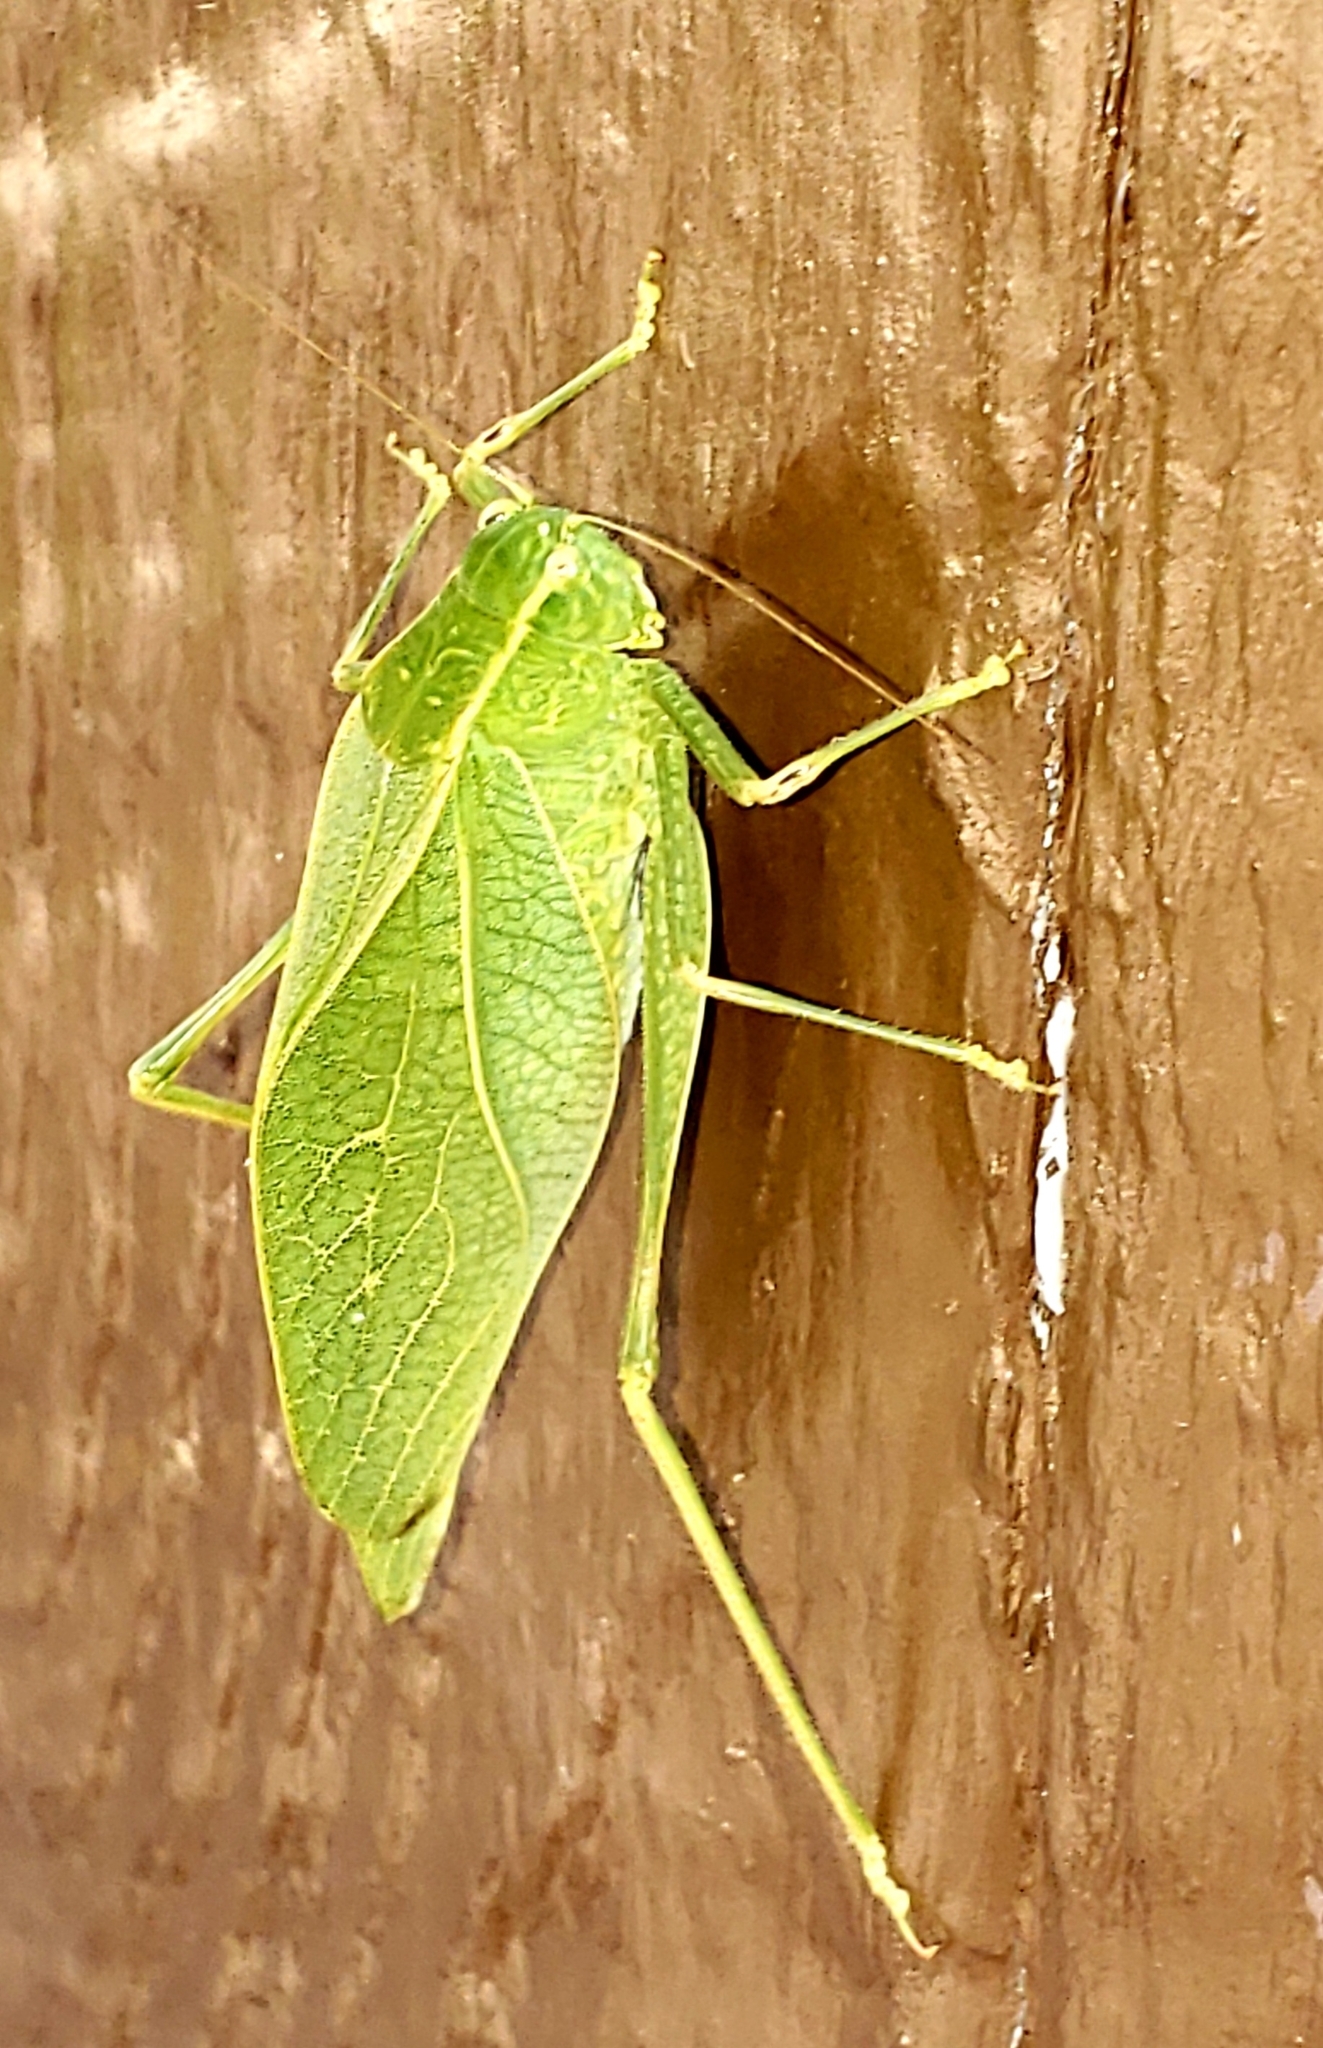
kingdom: Animalia
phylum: Arthropoda
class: Insecta
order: Orthoptera
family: Tettigoniidae
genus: Microcentrum
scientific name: Microcentrum retinerve
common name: Angular-winged katydid
